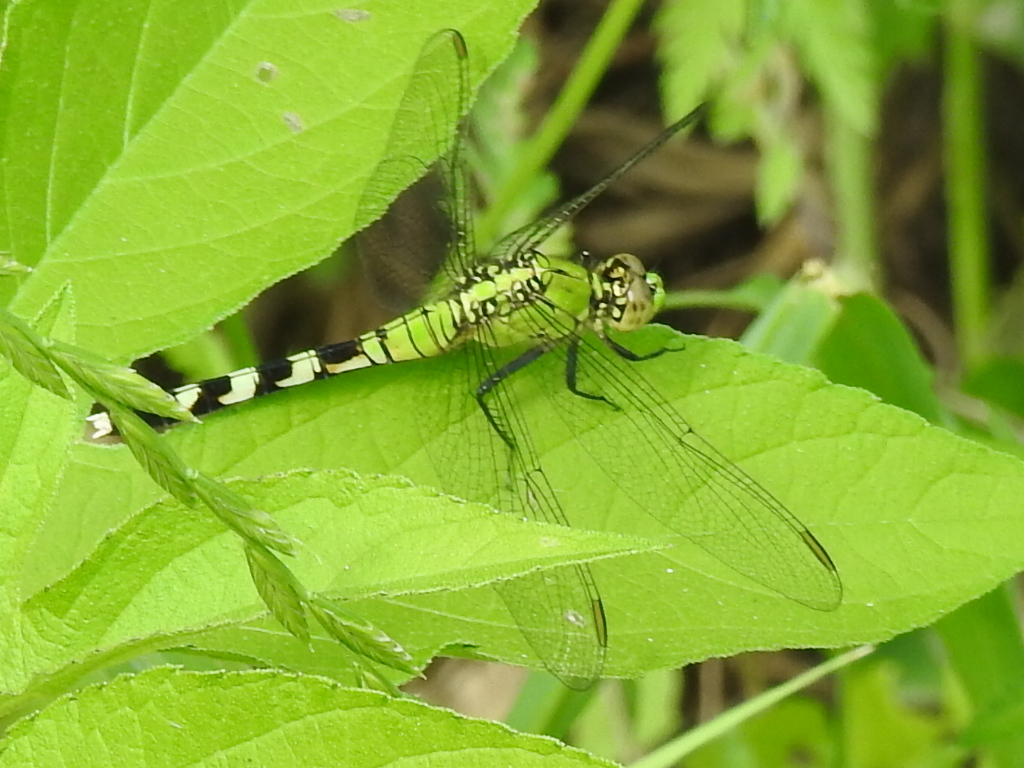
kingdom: Animalia
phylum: Arthropoda
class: Insecta
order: Odonata
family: Libellulidae
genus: Erythemis
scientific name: Erythemis simplicicollis
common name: Eastern pondhawk
